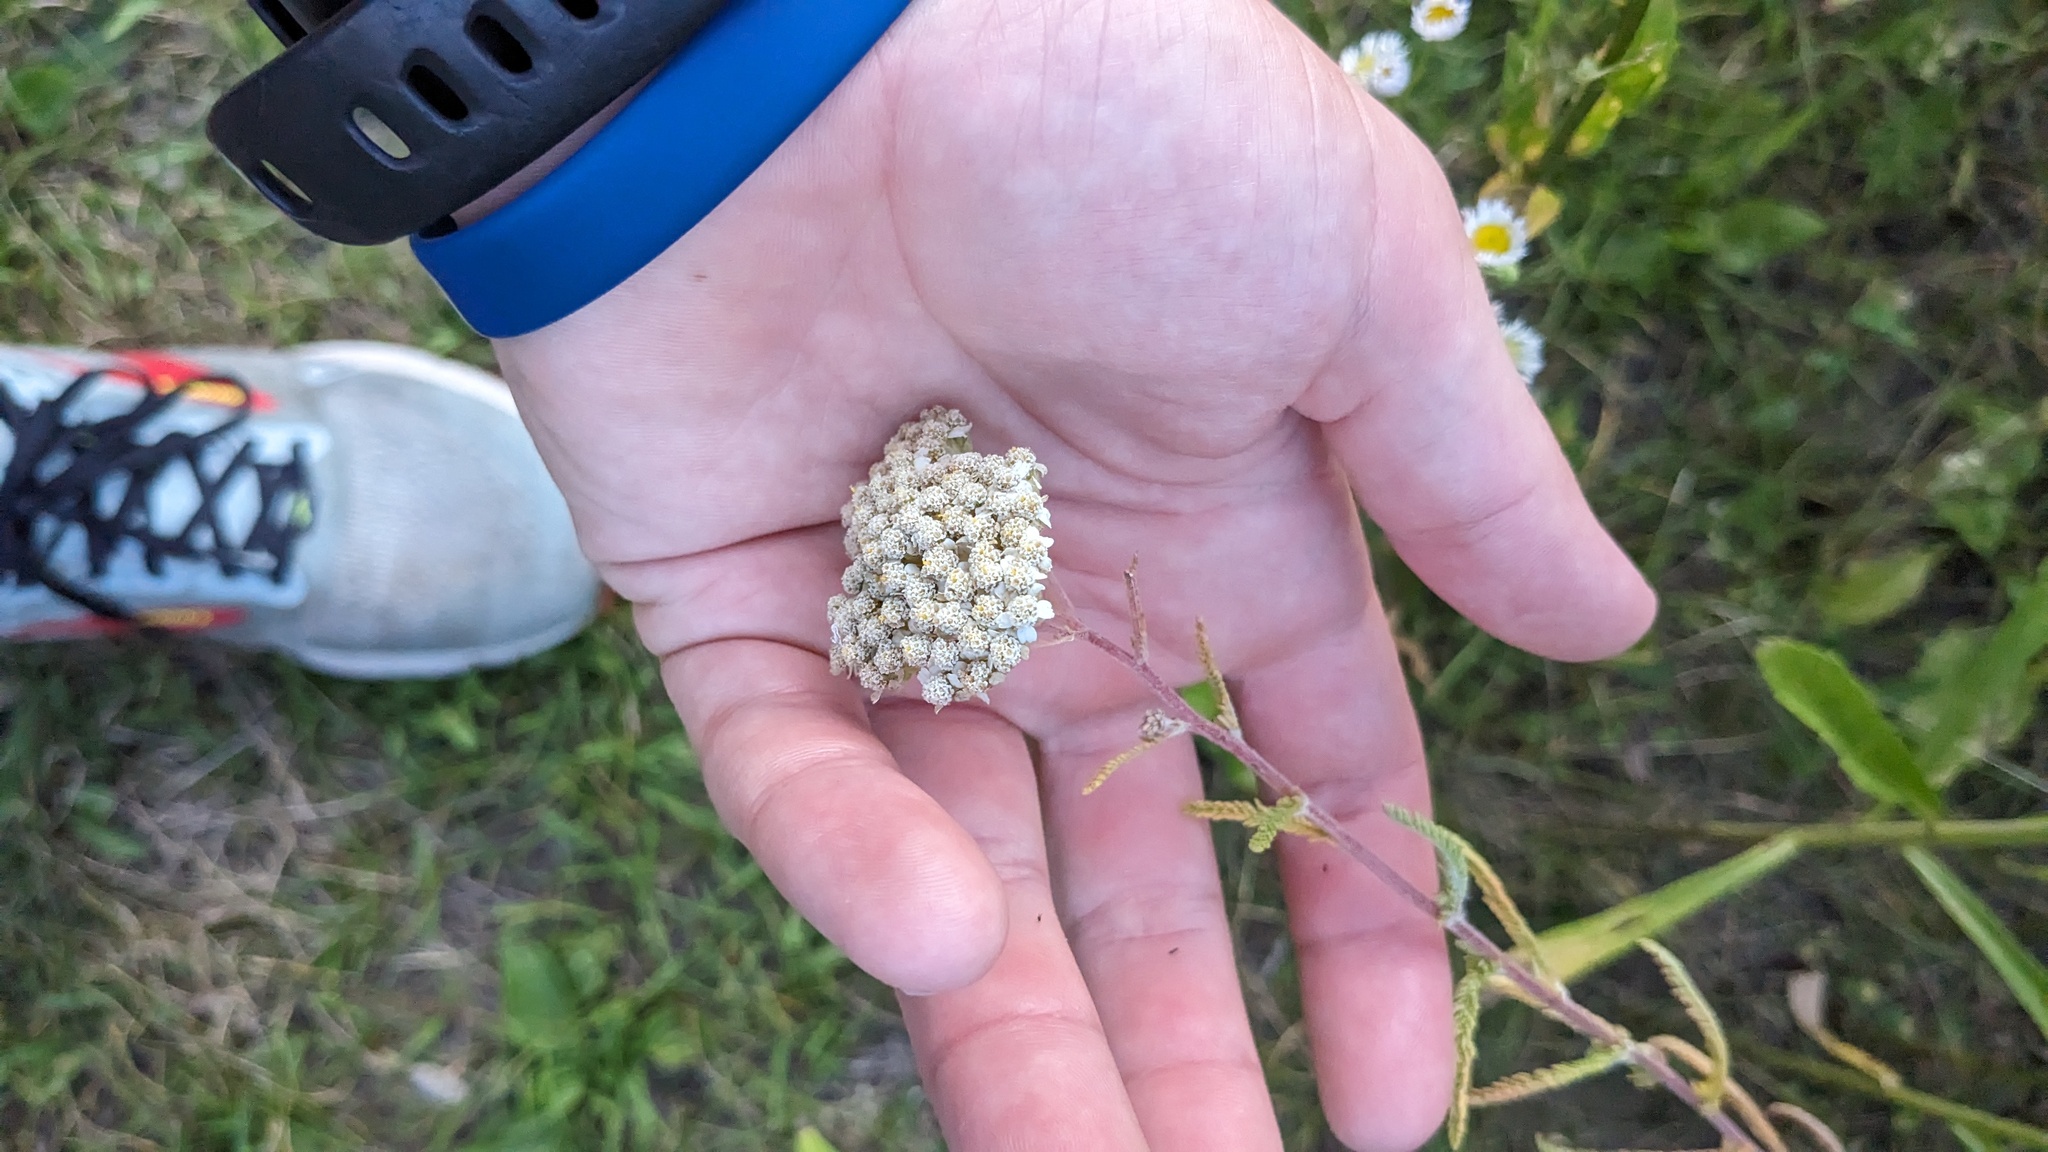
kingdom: Plantae
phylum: Tracheophyta
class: Magnoliopsida
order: Asterales
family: Asteraceae
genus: Achillea
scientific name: Achillea millefolium
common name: Yarrow
